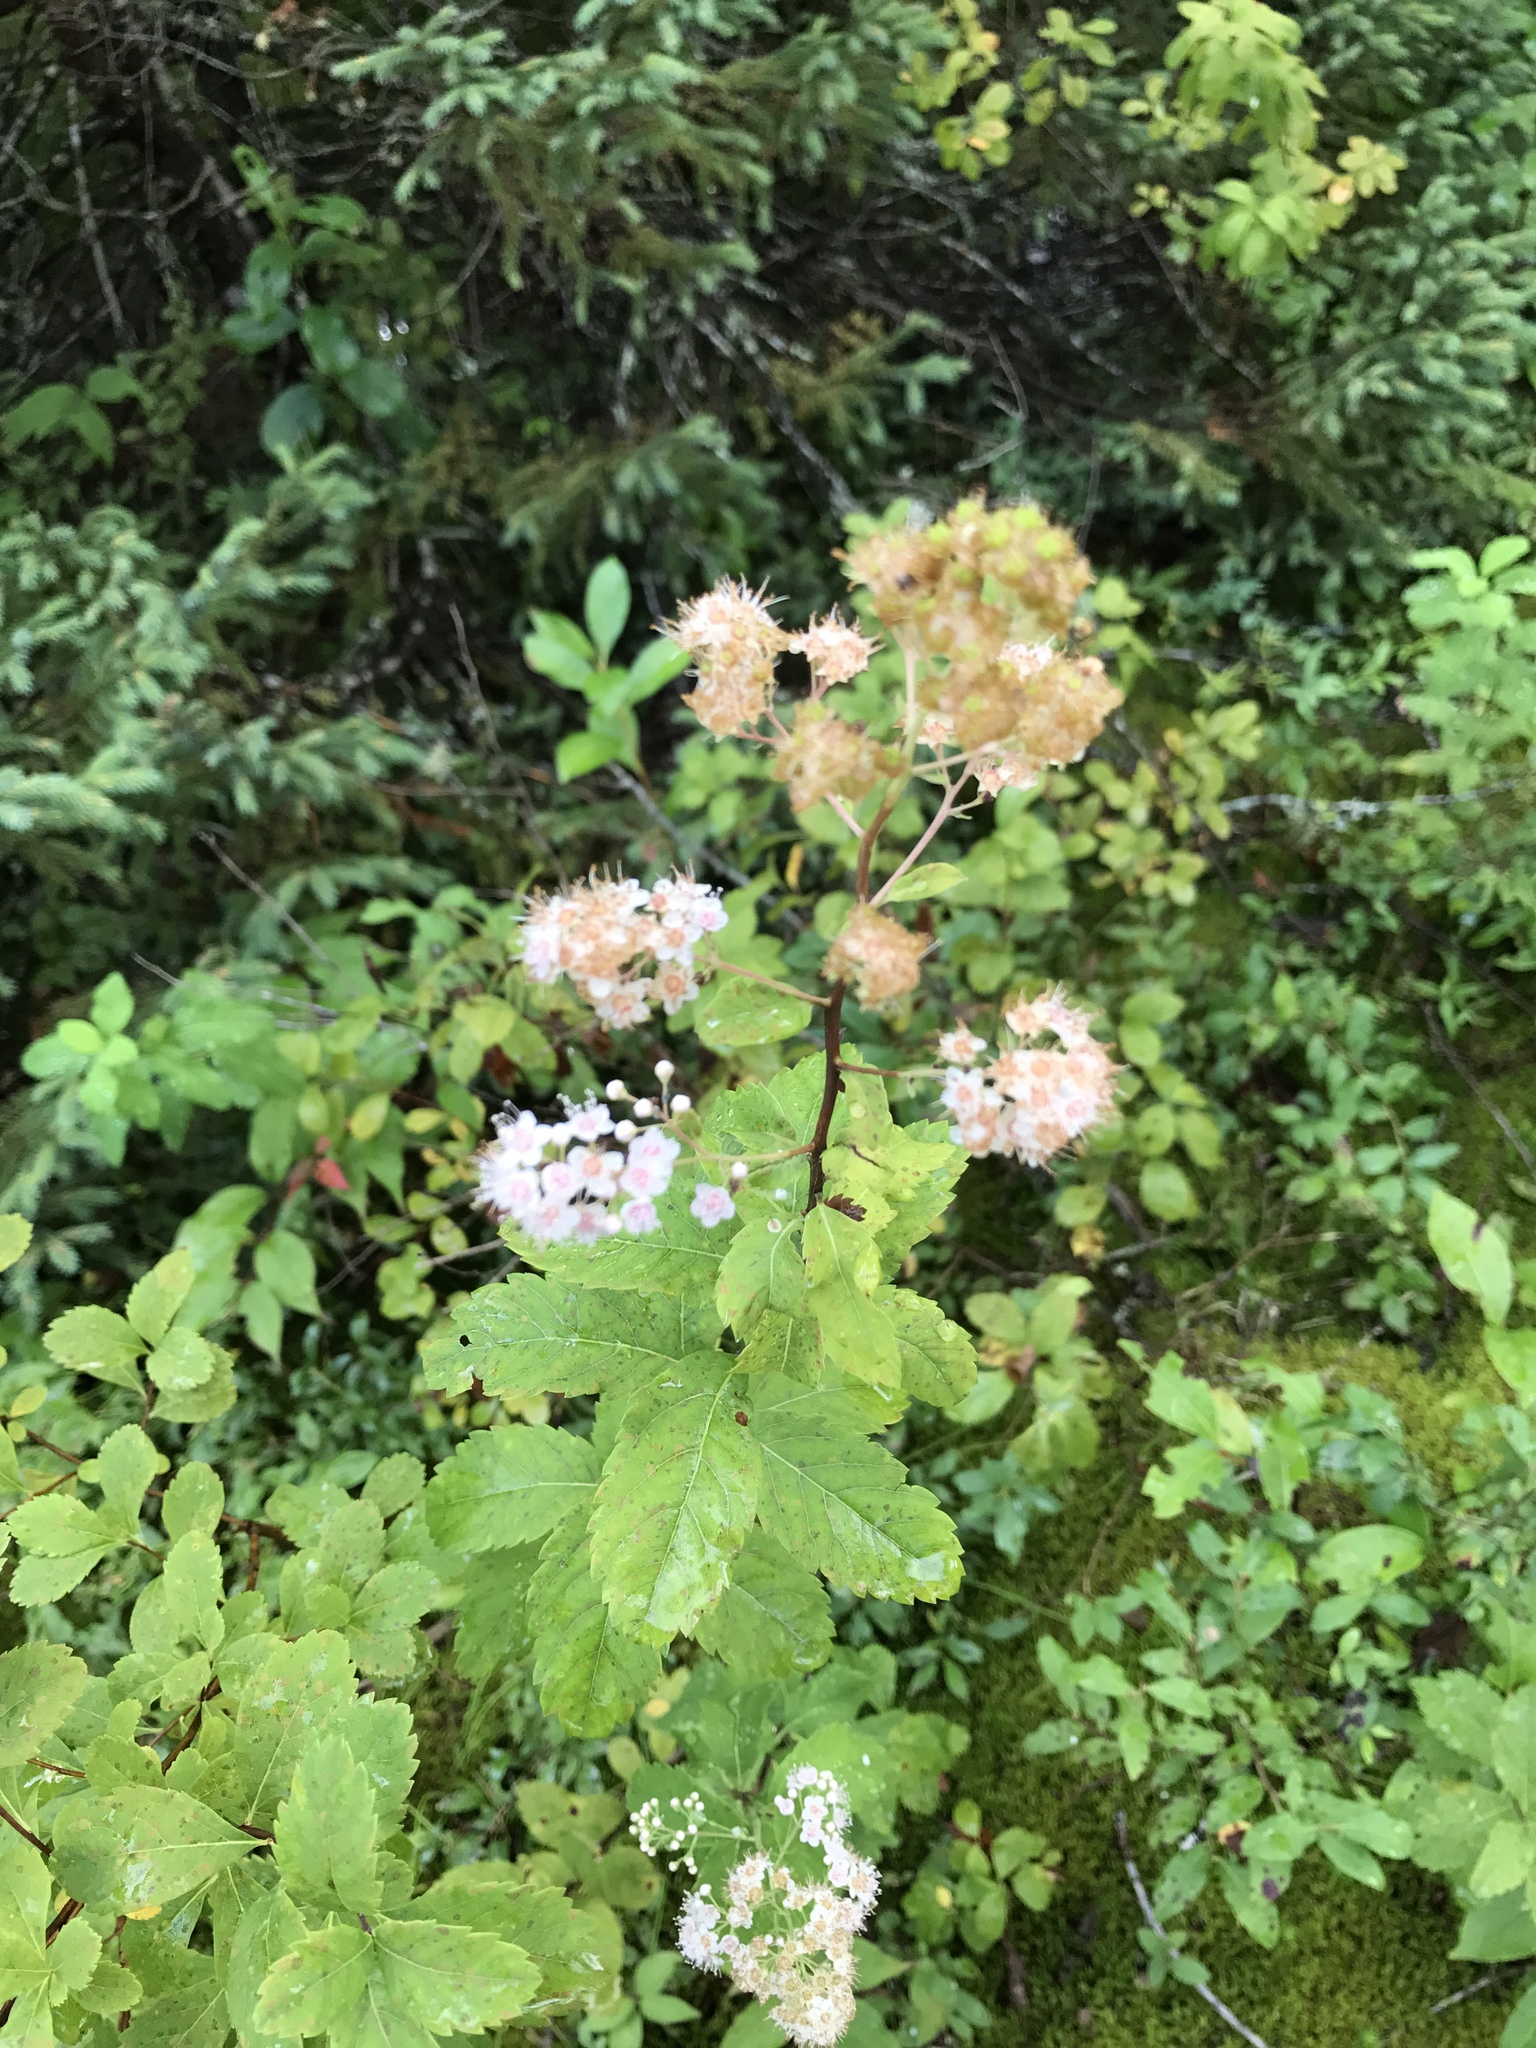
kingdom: Plantae
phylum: Tracheophyta
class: Magnoliopsida
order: Rosales
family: Rosaceae
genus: Spiraea
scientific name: Spiraea alba
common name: Pale bridewort
